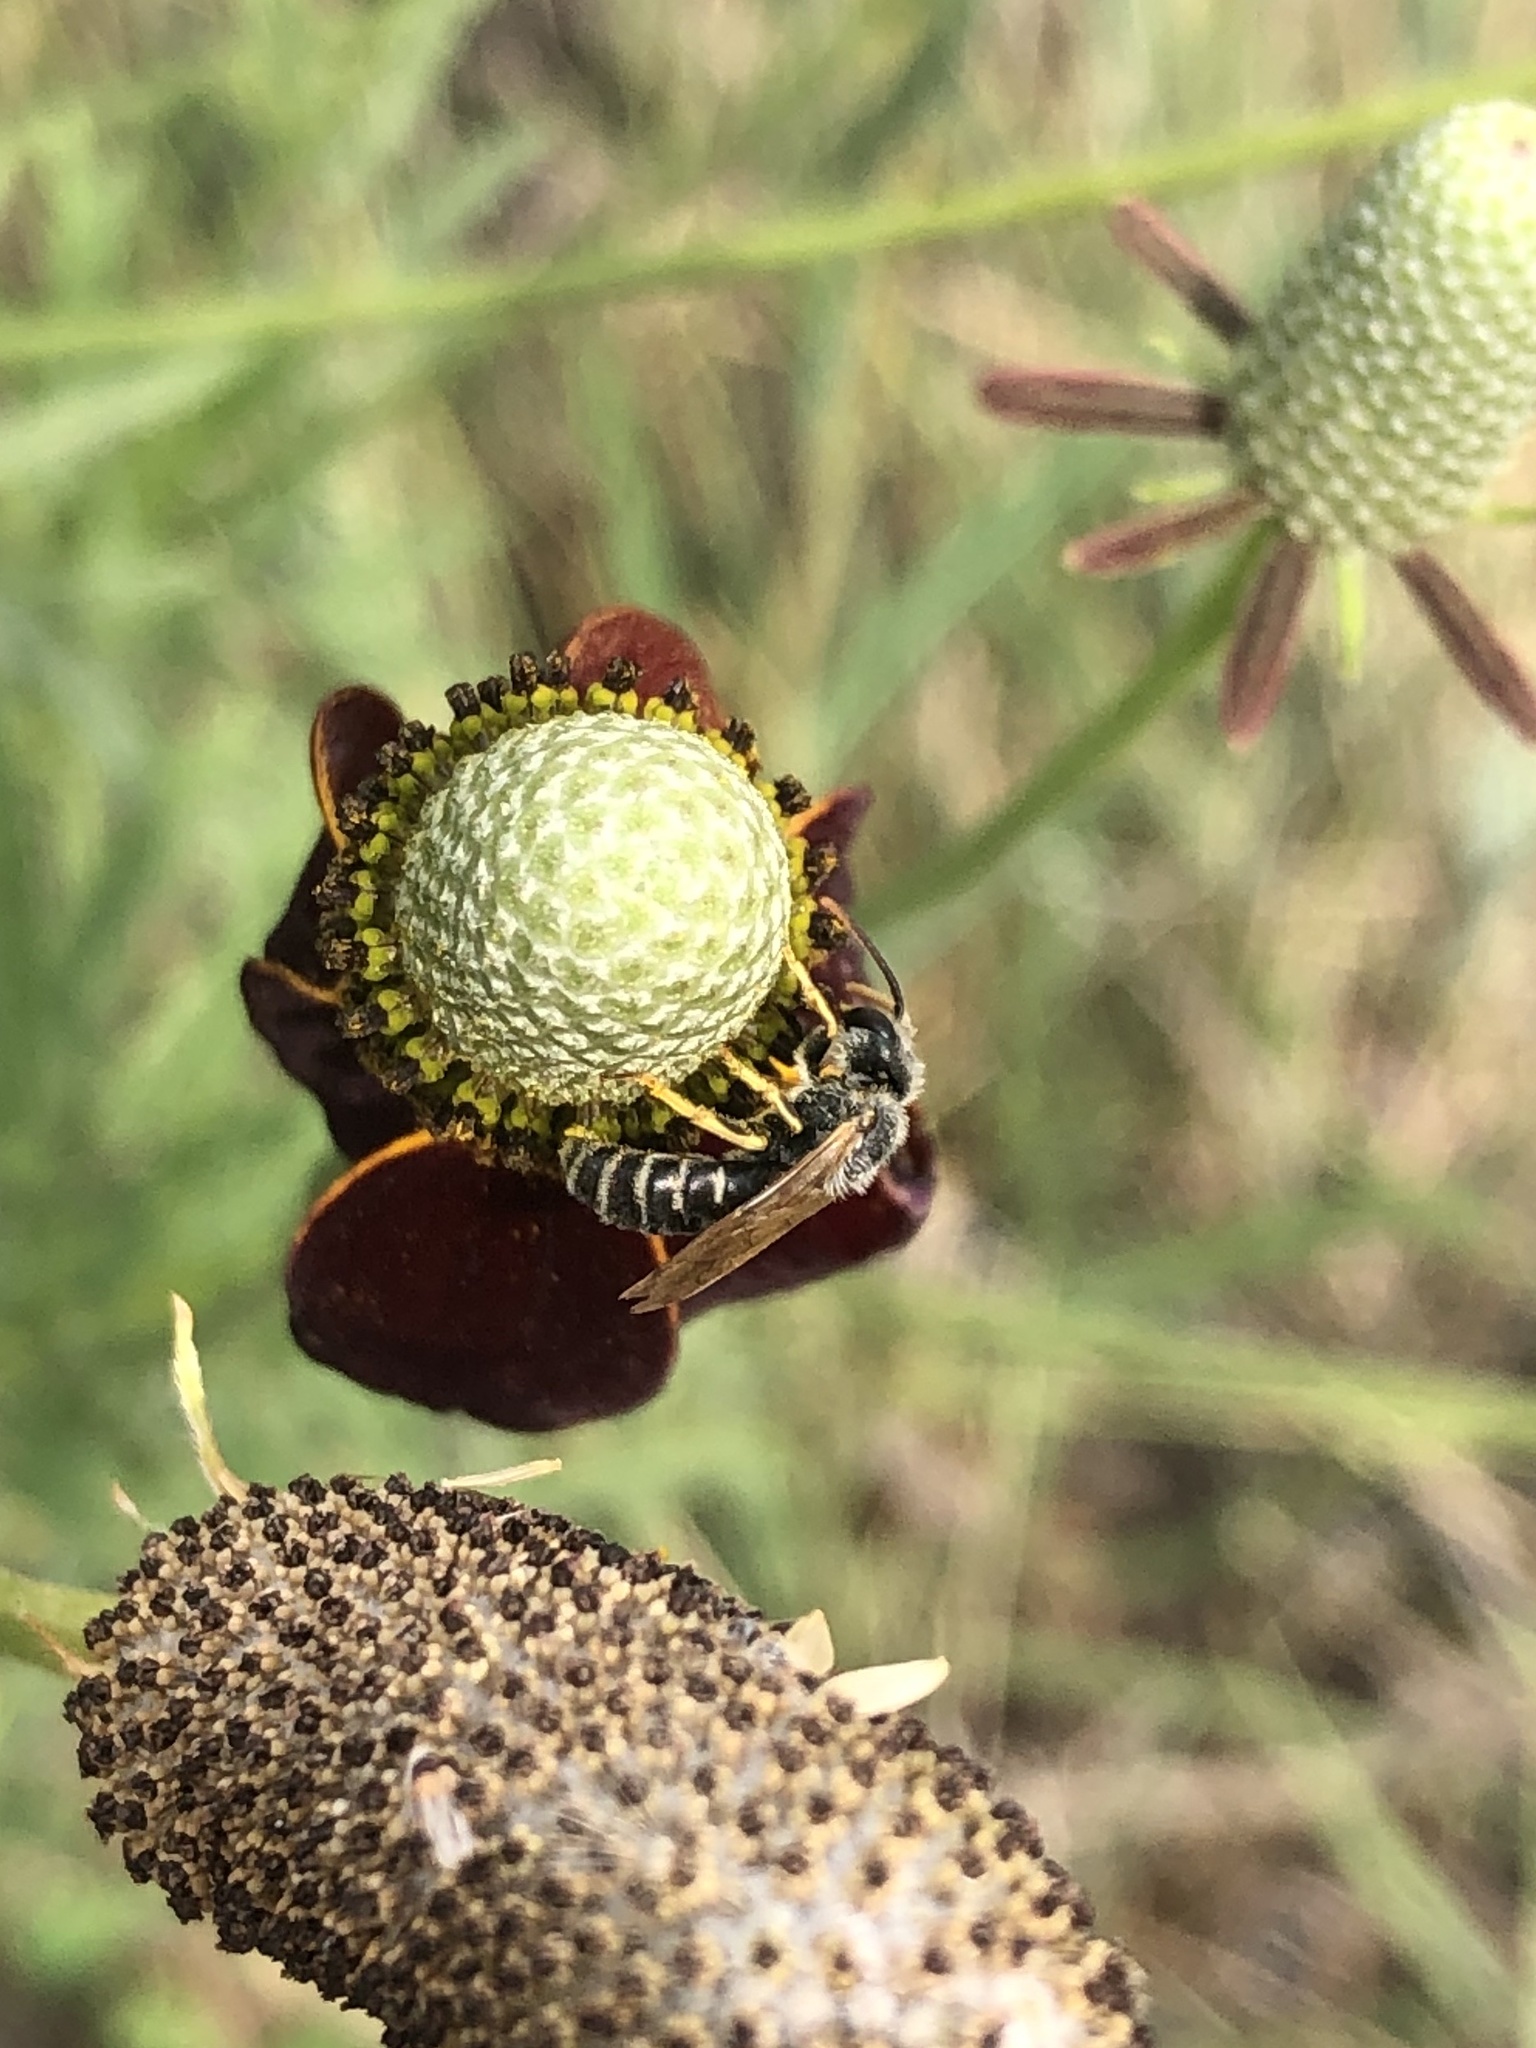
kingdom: Animalia
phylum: Arthropoda
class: Insecta
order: Hymenoptera
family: Halictidae
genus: Halictus
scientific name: Halictus ligatus
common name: Ligated furrow bee
